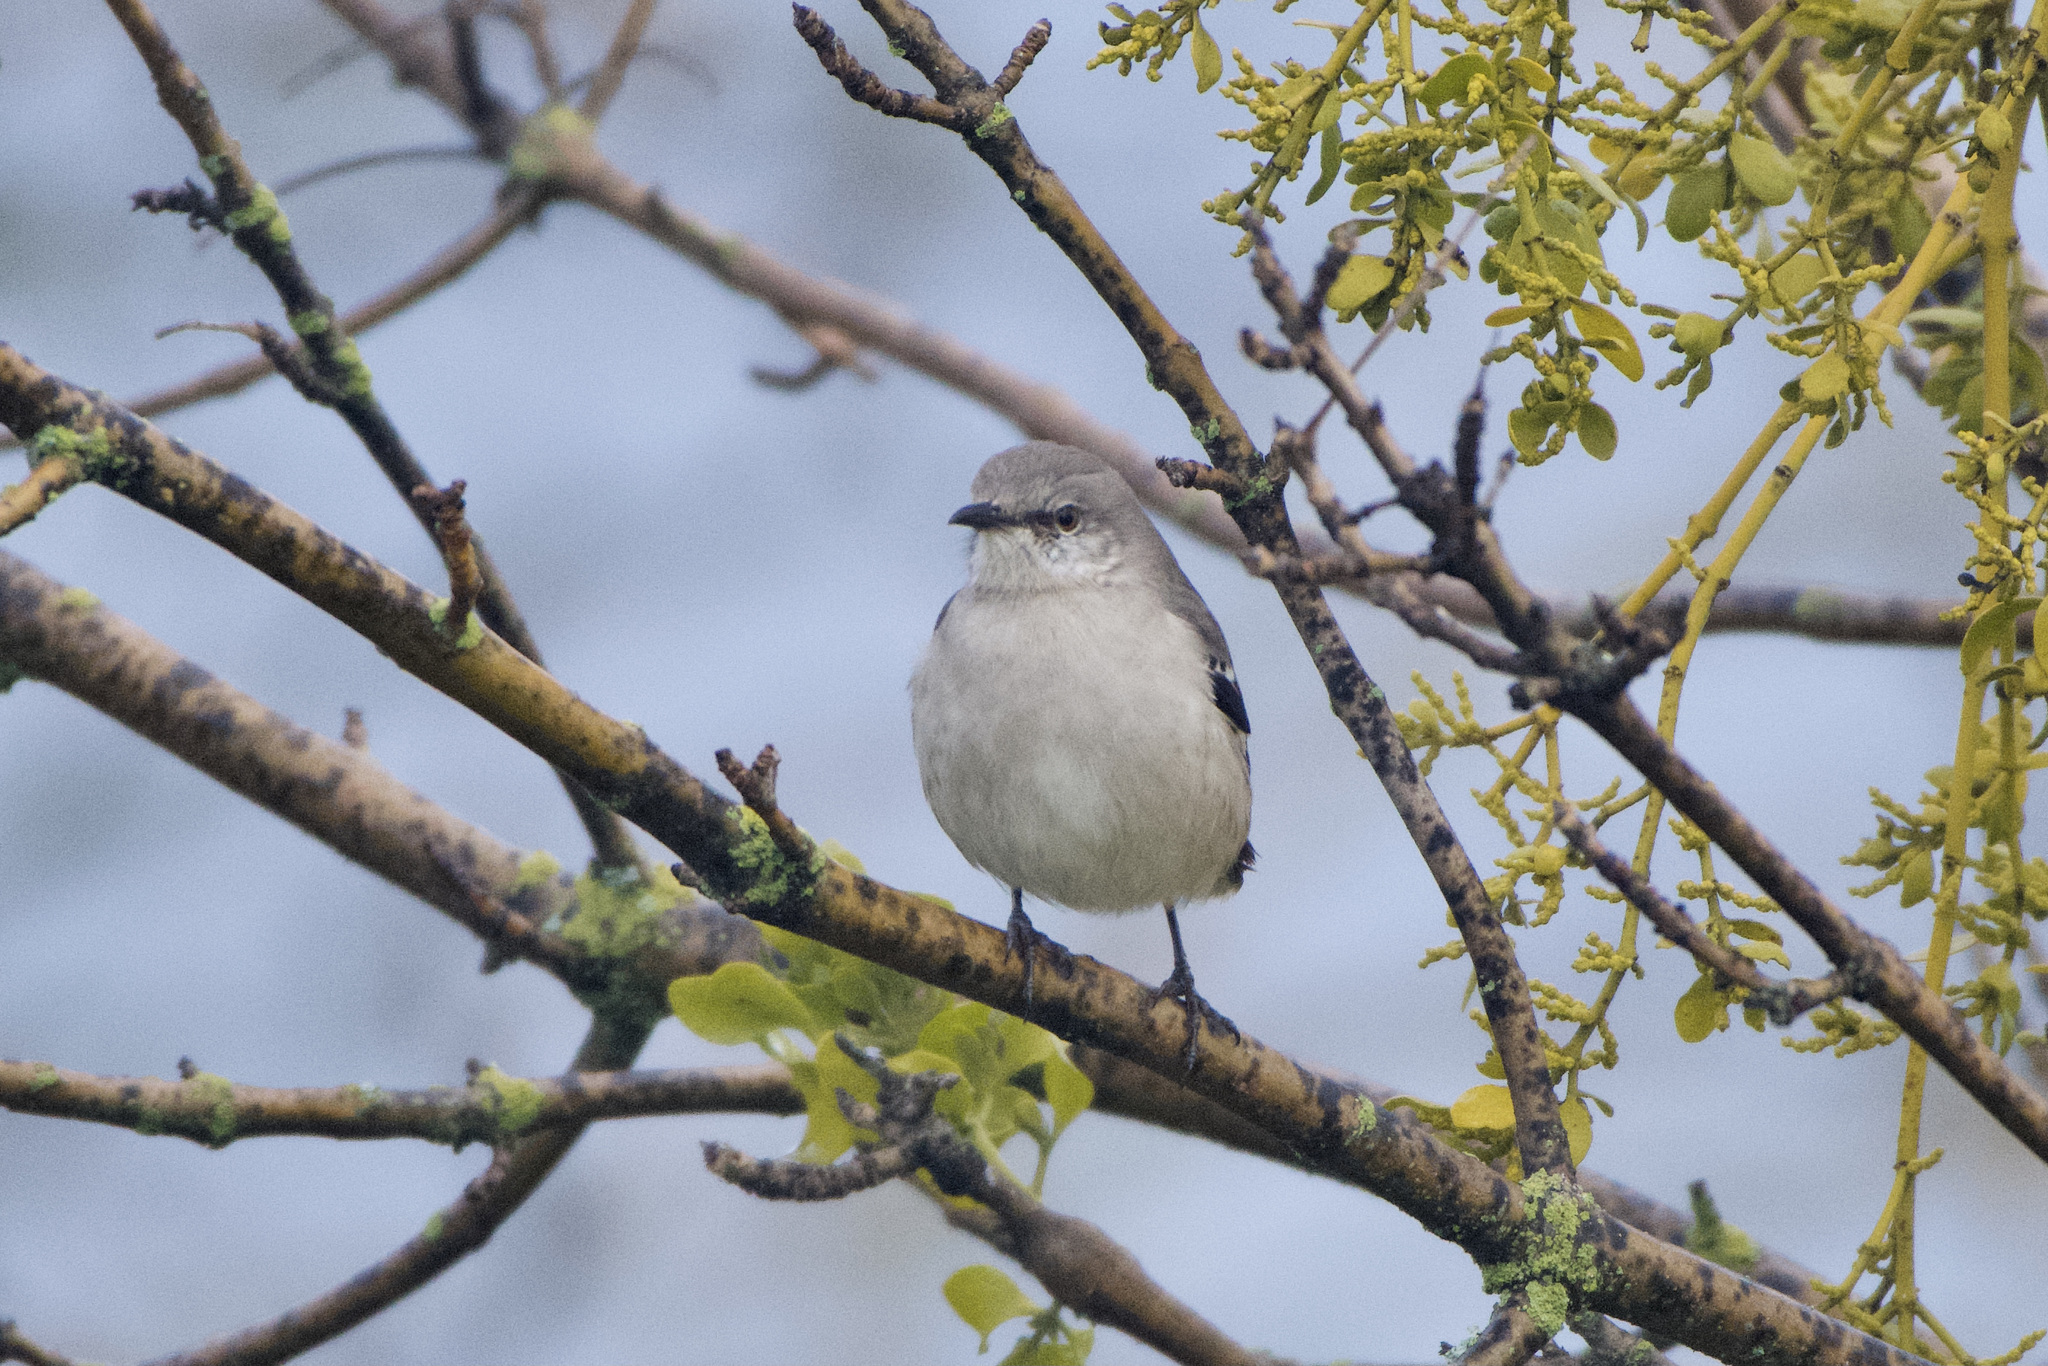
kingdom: Animalia
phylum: Chordata
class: Aves
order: Passeriformes
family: Mimidae
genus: Mimus
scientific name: Mimus polyglottos
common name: Northern mockingbird
